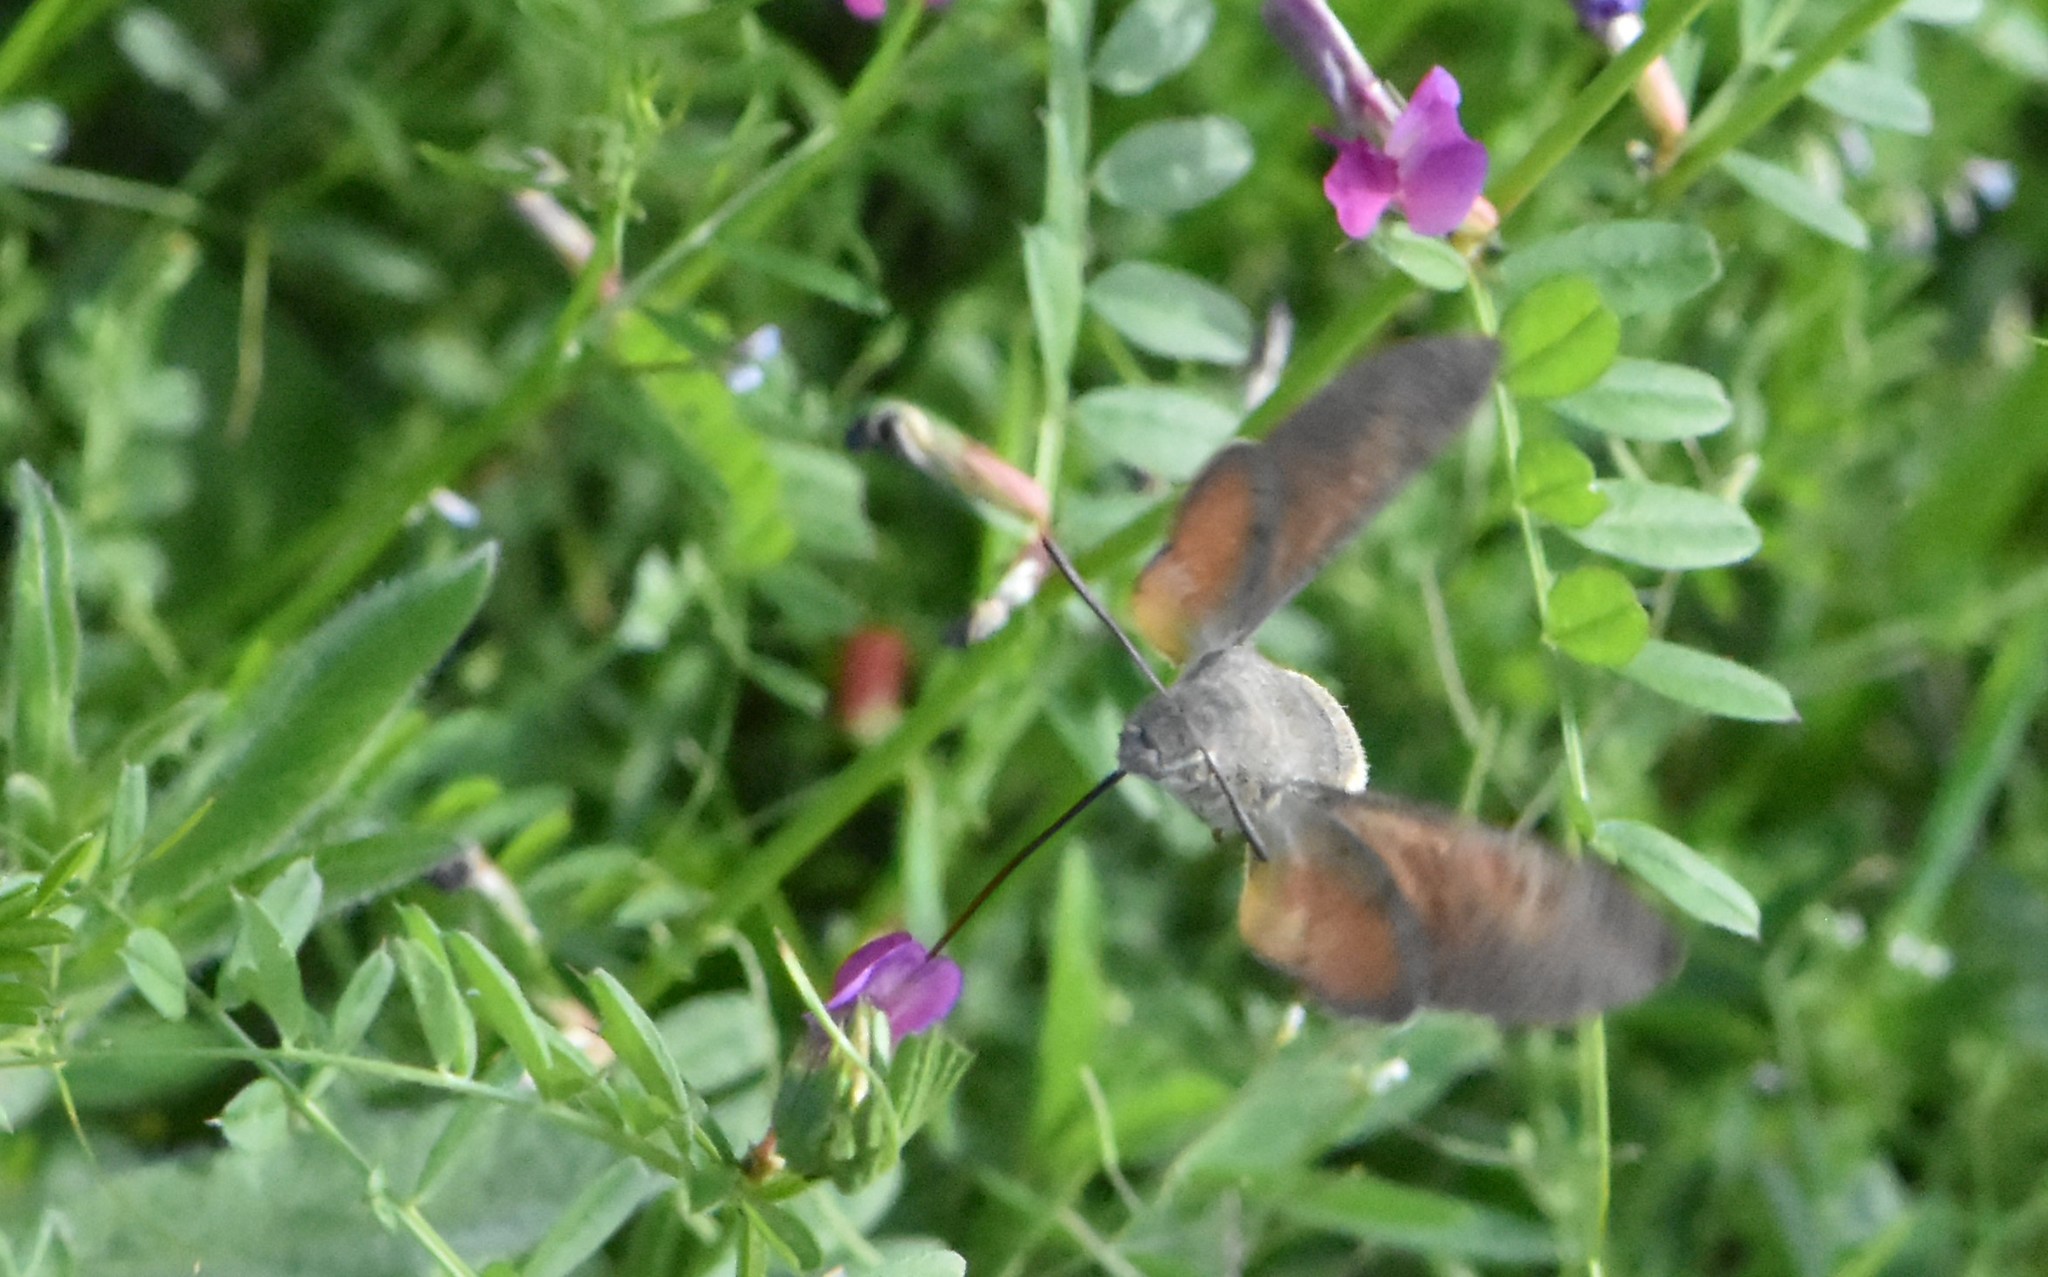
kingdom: Animalia
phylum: Arthropoda
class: Insecta
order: Lepidoptera
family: Sphingidae
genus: Macroglossum
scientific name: Macroglossum stellatarum
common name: Humming-bird hawk-moth
